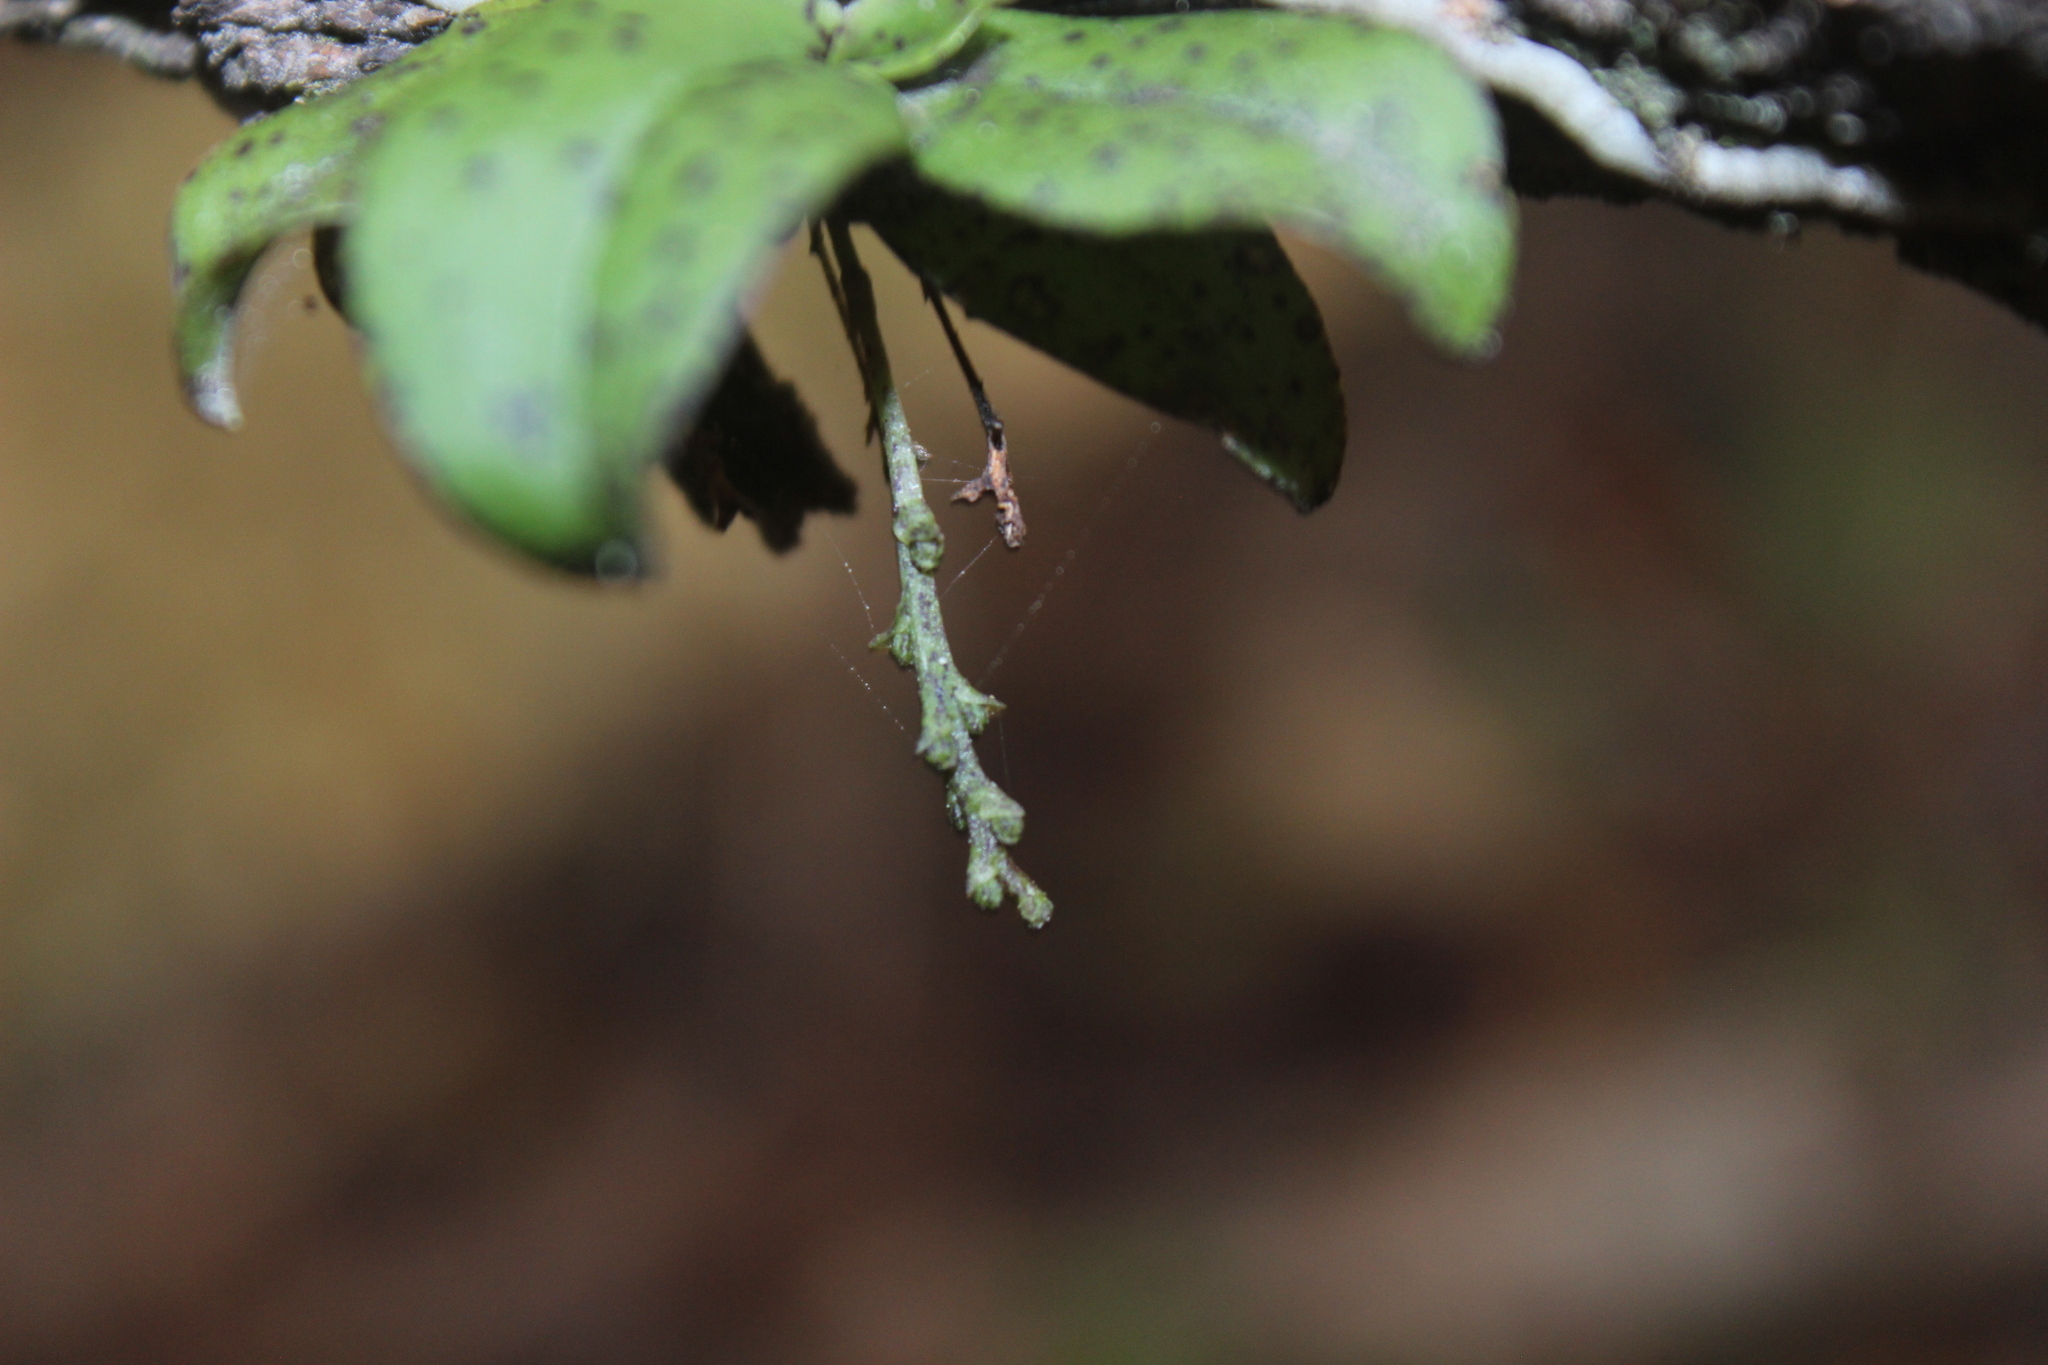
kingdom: Plantae
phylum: Tracheophyta
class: Liliopsida
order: Asparagales
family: Orchidaceae
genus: Drymoanthus
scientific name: Drymoanthus flavus
